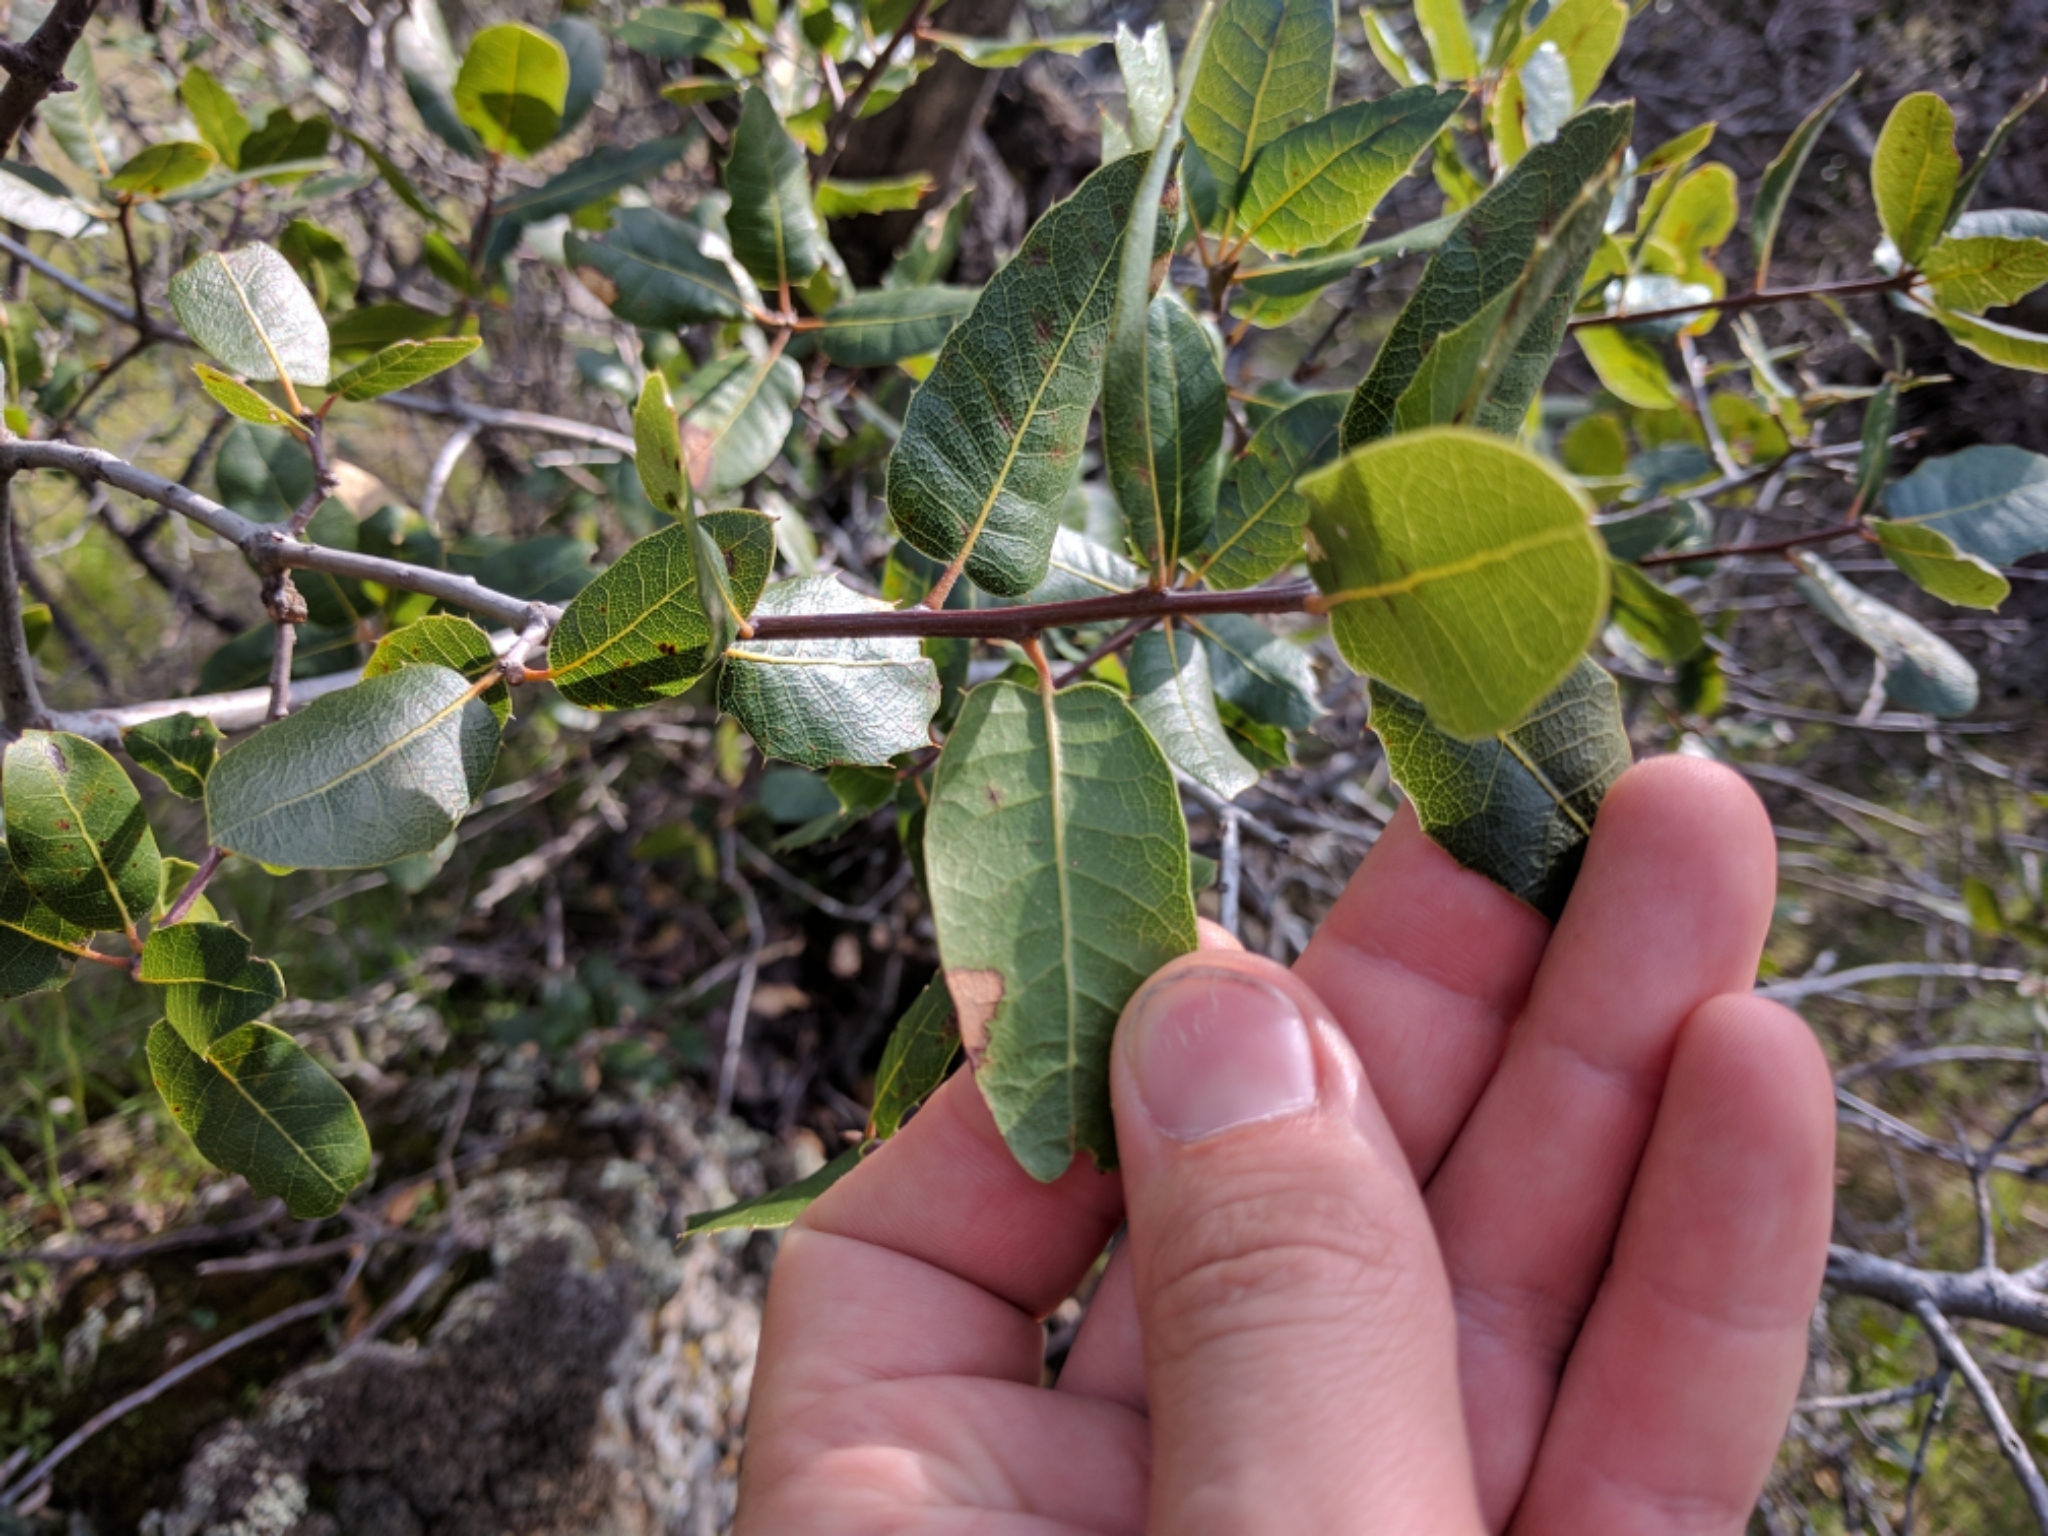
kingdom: Plantae
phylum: Tracheophyta
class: Magnoliopsida
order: Fagales
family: Fagaceae
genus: Quercus
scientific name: Quercus wislizeni
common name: Interior live oak
